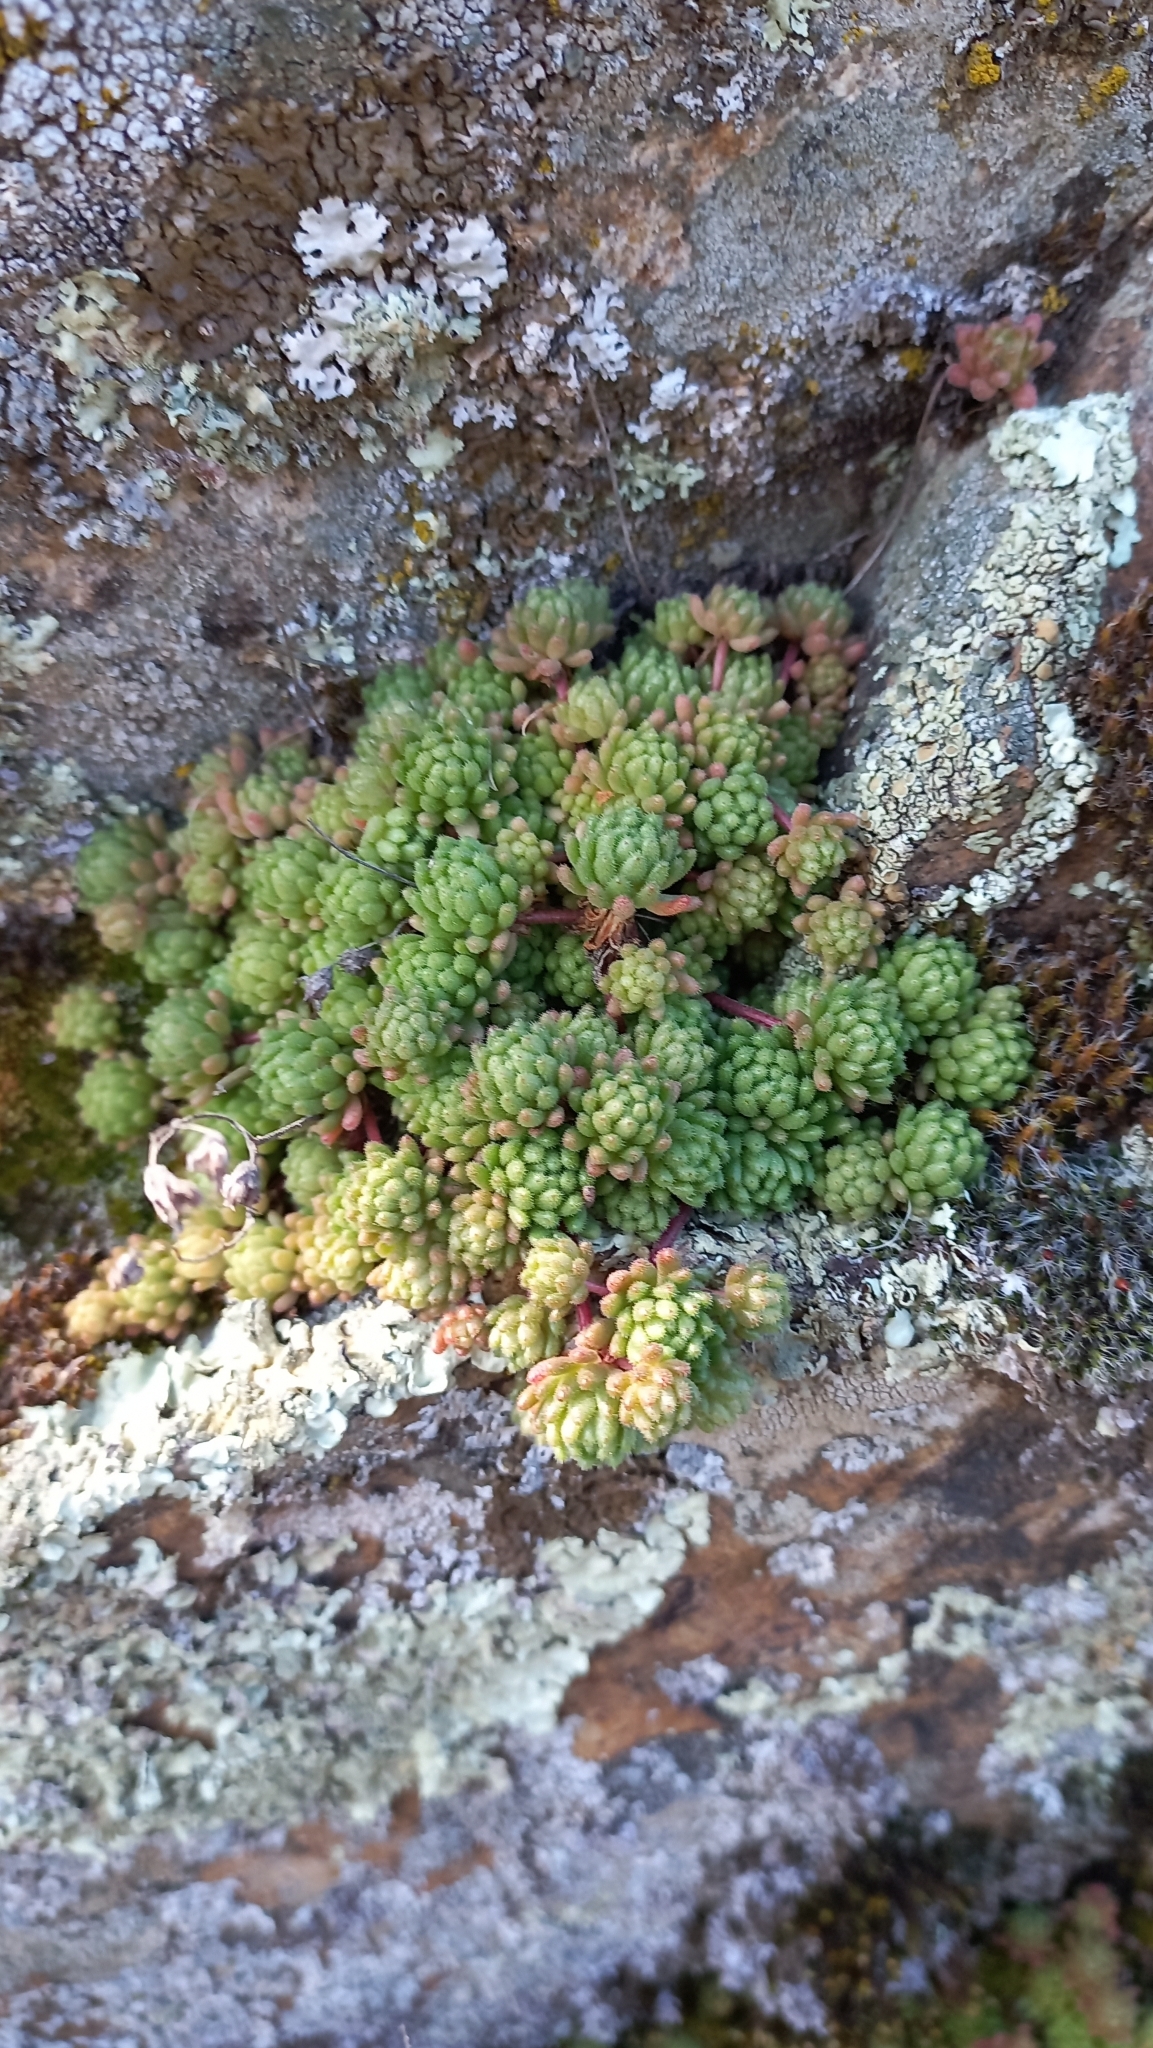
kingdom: Plantae
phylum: Tracheophyta
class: Magnoliopsida
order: Saxifragales
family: Crassulaceae
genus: Sedum
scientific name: Sedum hirsutum
